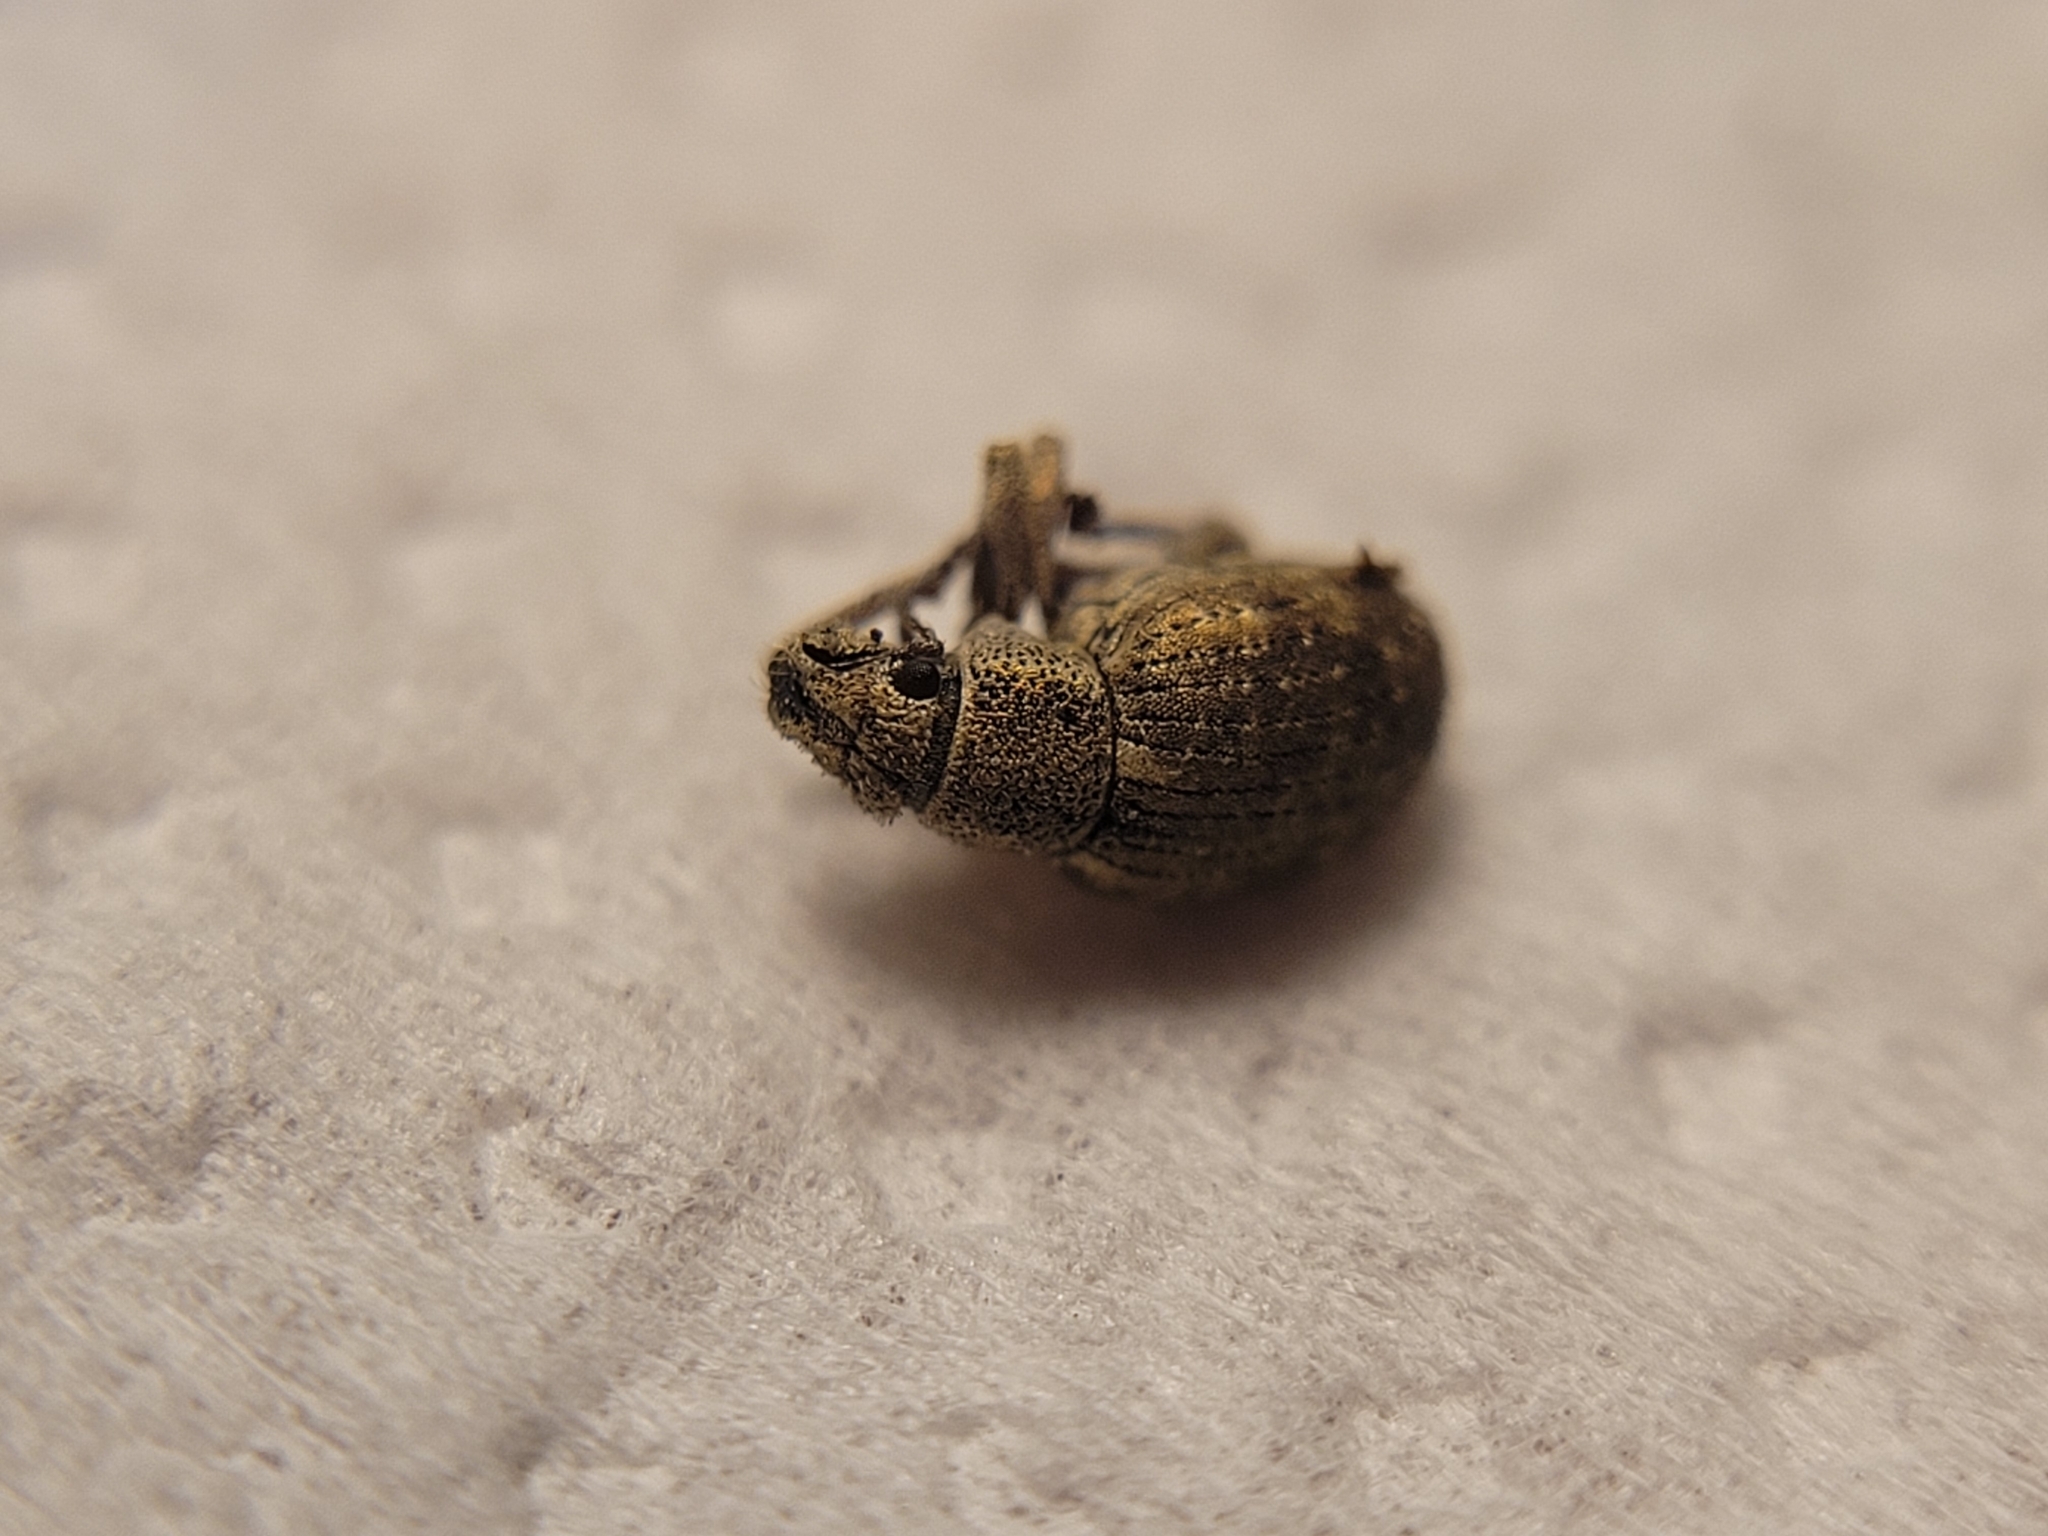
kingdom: Animalia
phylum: Arthropoda
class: Insecta
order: Coleoptera
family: Curculionidae
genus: Strophosoma
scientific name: Strophosoma capitatum
